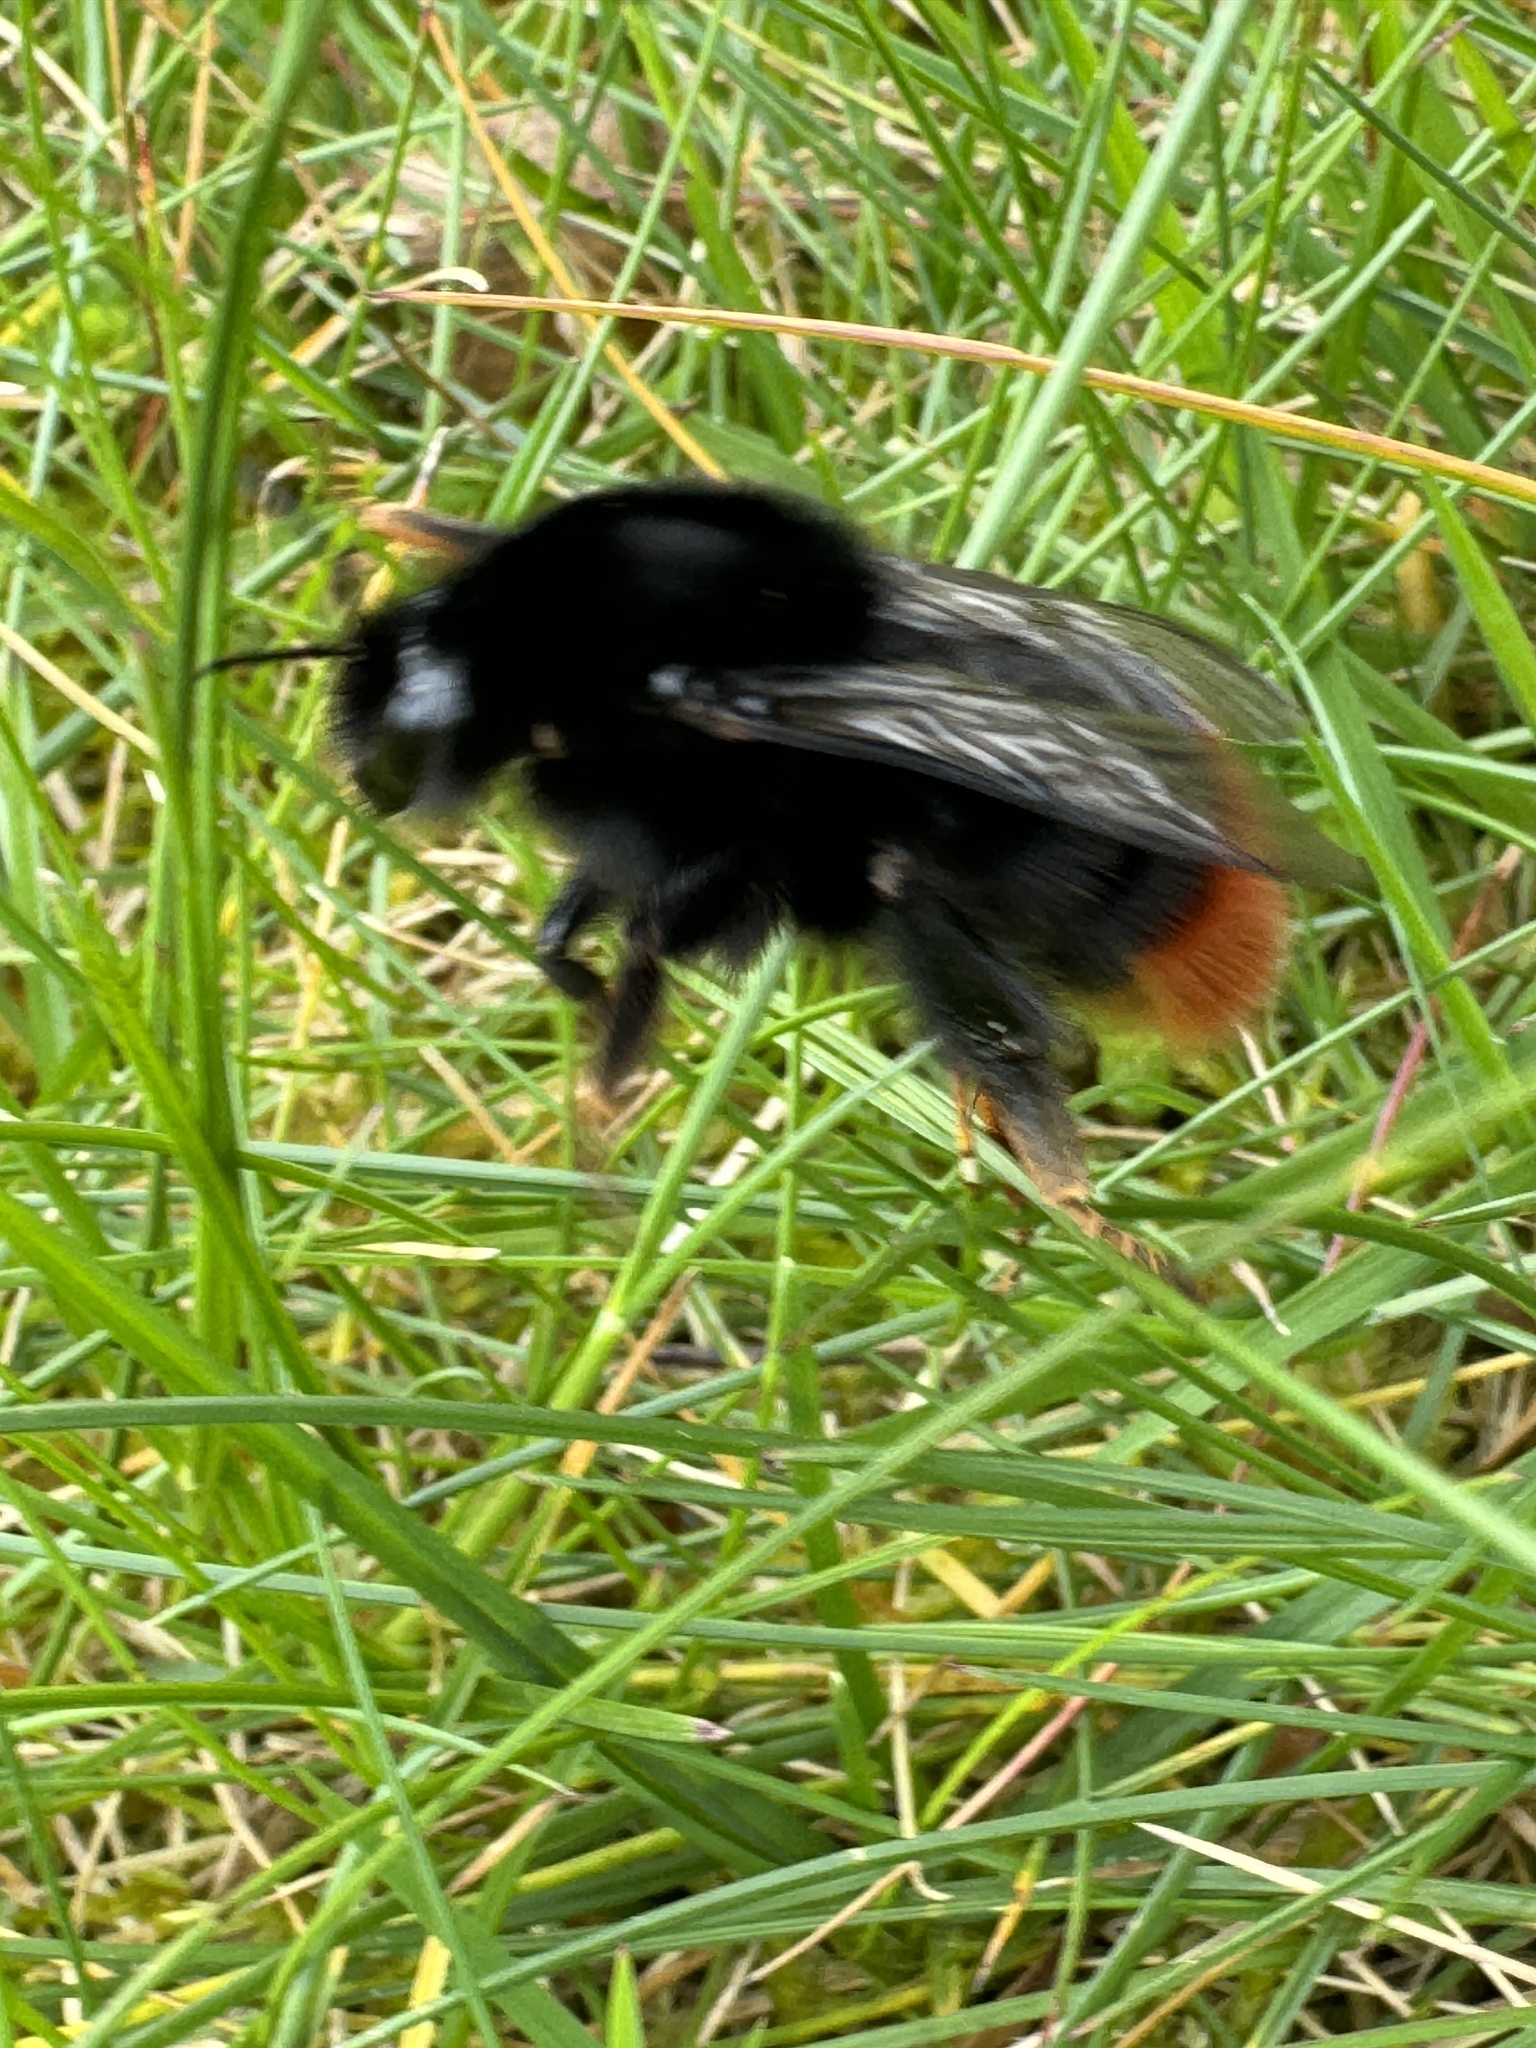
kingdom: Animalia
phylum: Arthropoda
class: Insecta
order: Hymenoptera
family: Apidae
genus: Bombus
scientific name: Bombus lapidarius
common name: Large red-tailed humble-bee
